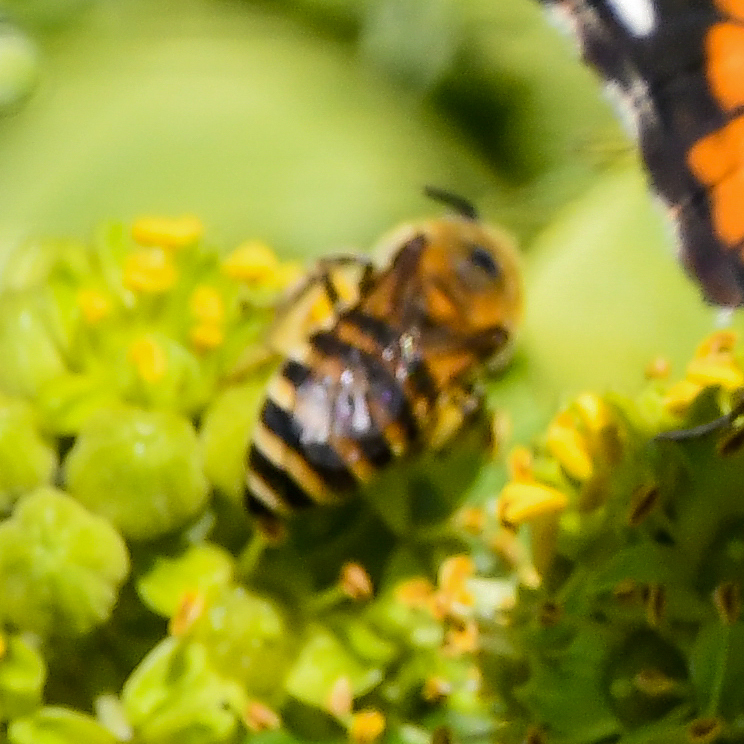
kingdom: Animalia
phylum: Arthropoda
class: Insecta
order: Hymenoptera
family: Colletidae
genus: Colletes
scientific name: Colletes hederae
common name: Ivy bee
